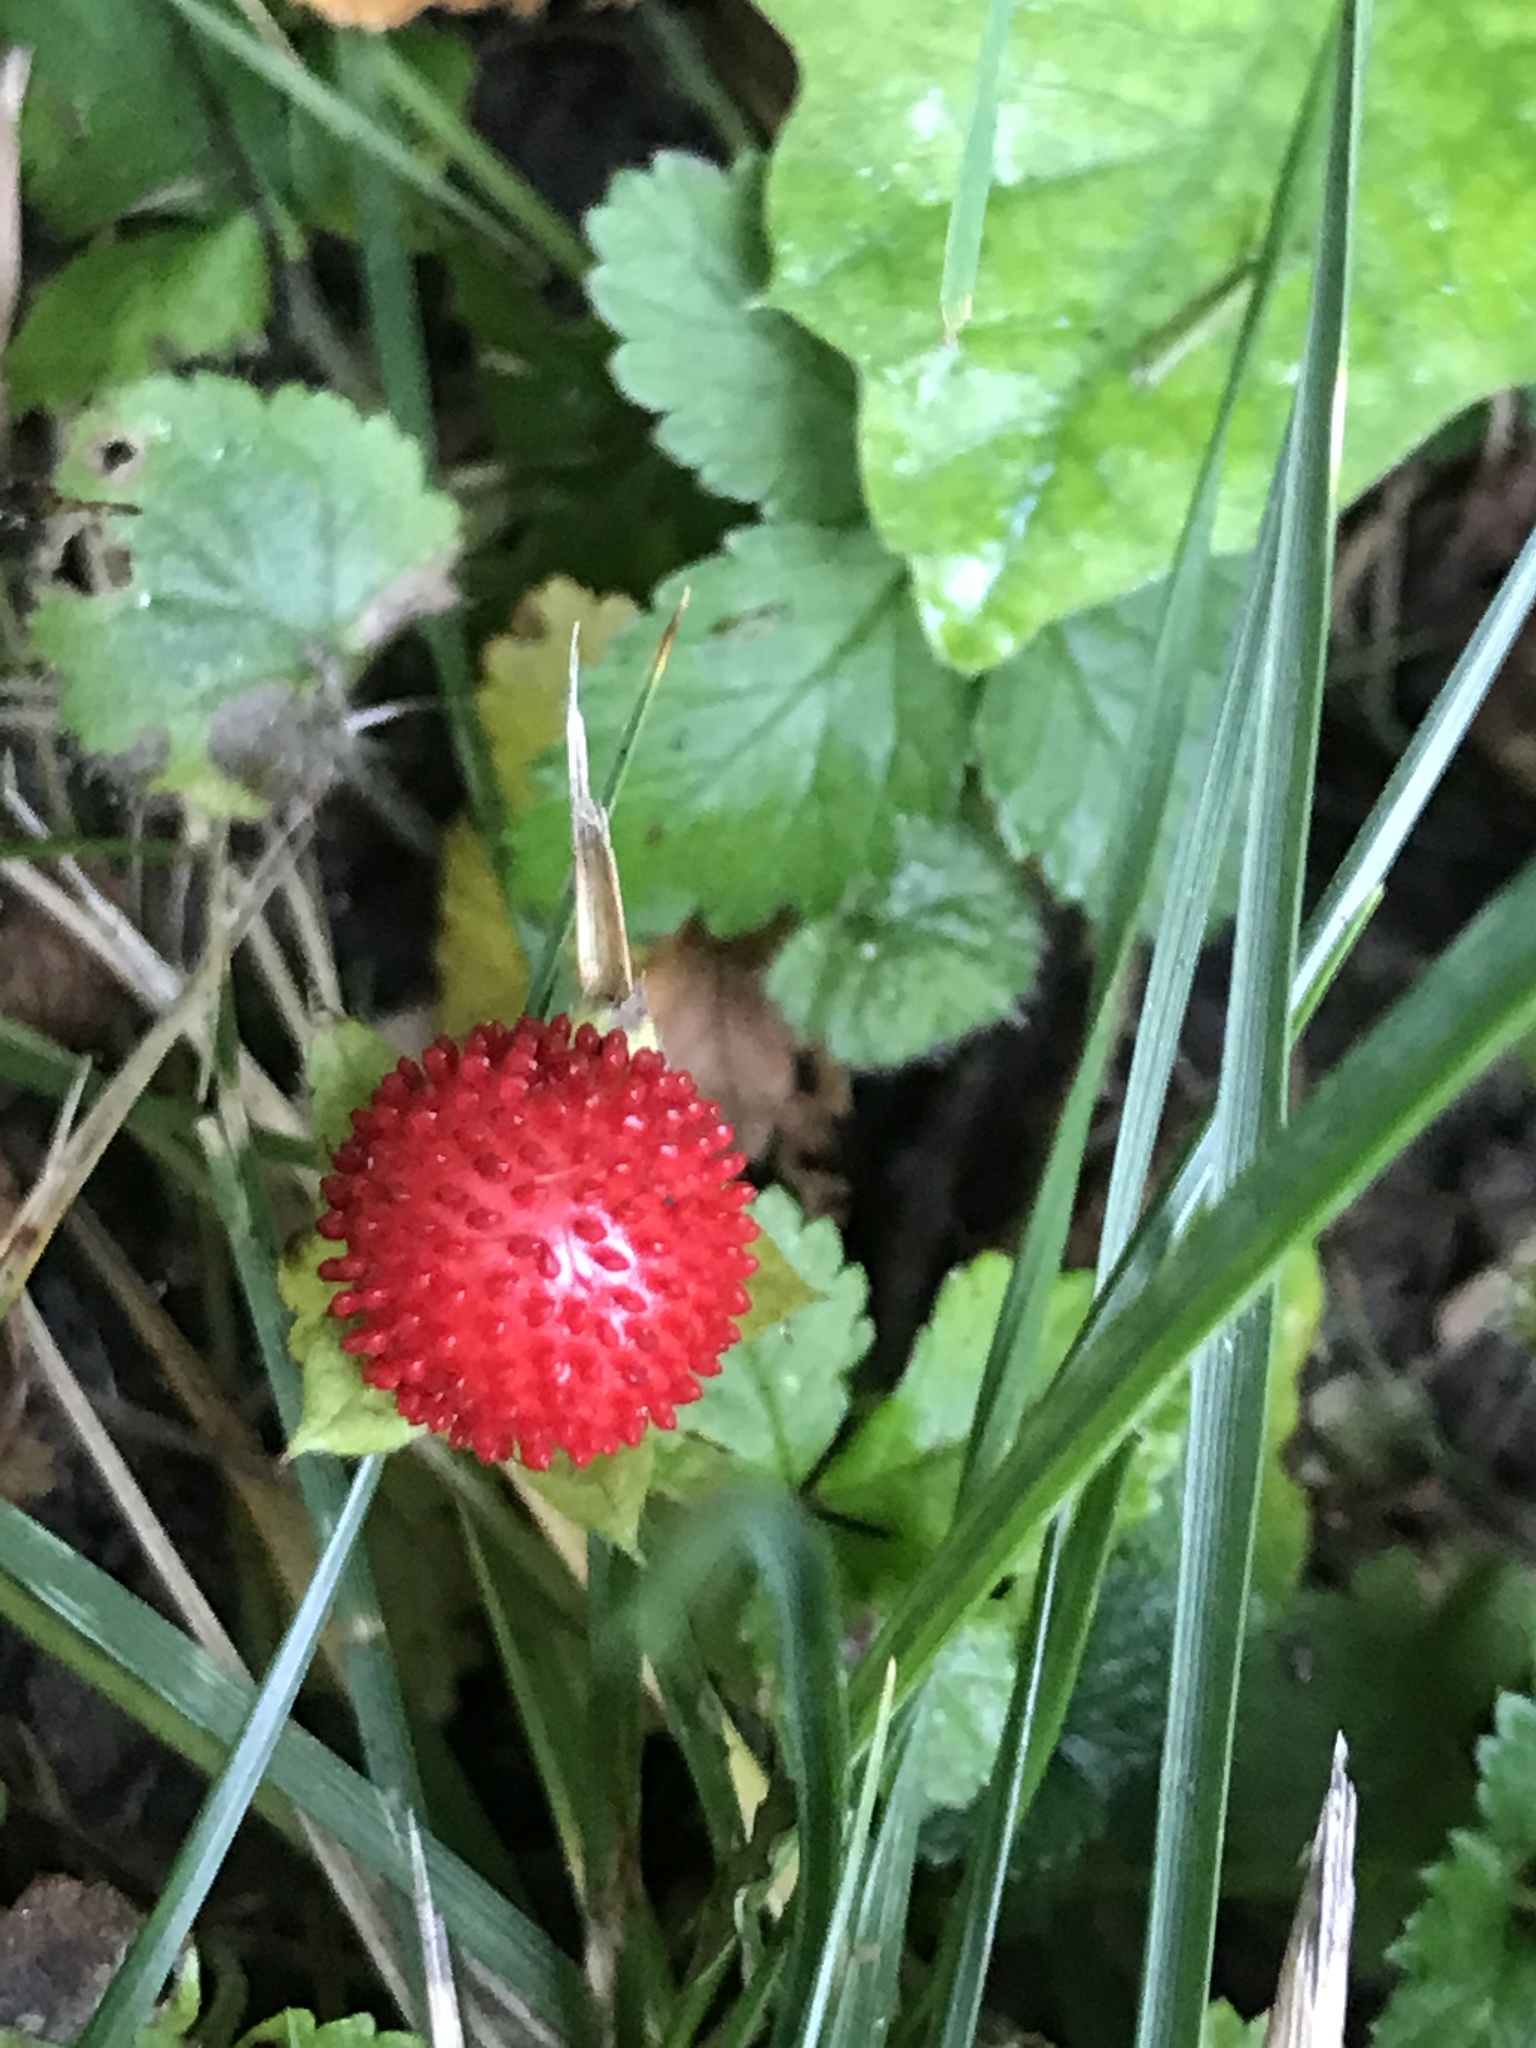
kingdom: Plantae
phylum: Tracheophyta
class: Magnoliopsida
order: Rosales
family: Rosaceae
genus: Potentilla
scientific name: Potentilla indica
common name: Yellow-flowered strawberry
